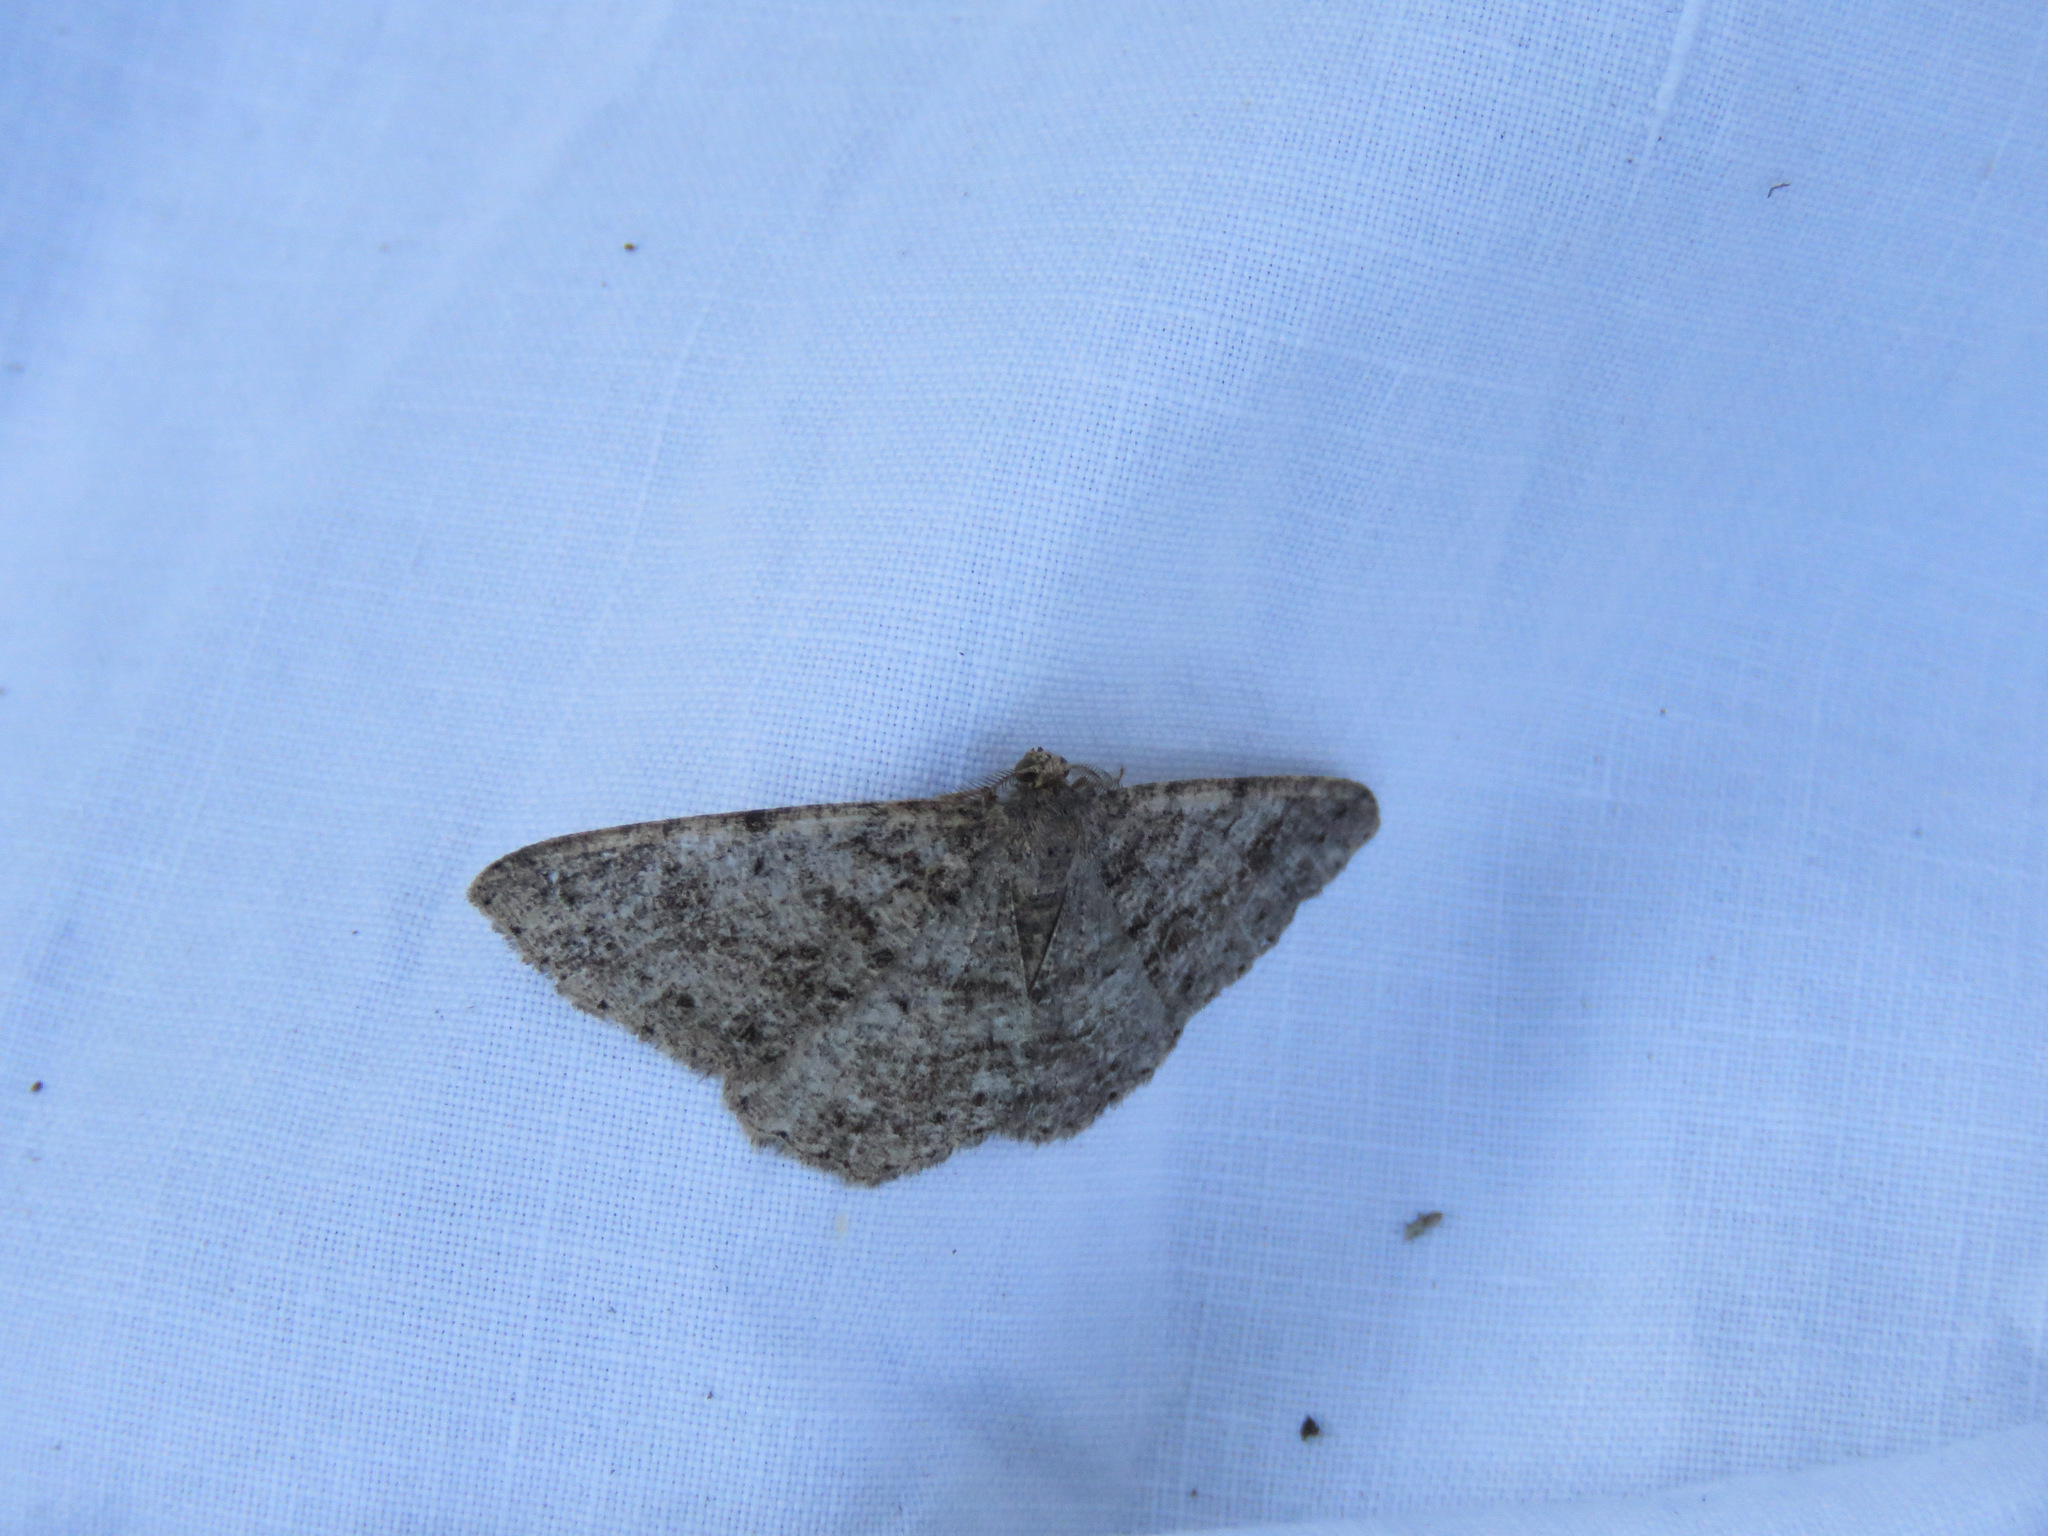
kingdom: Animalia
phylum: Arthropoda
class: Insecta
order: Lepidoptera
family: Geometridae
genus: Aethalura
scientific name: Aethalura intertexta
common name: Four-barred gray
